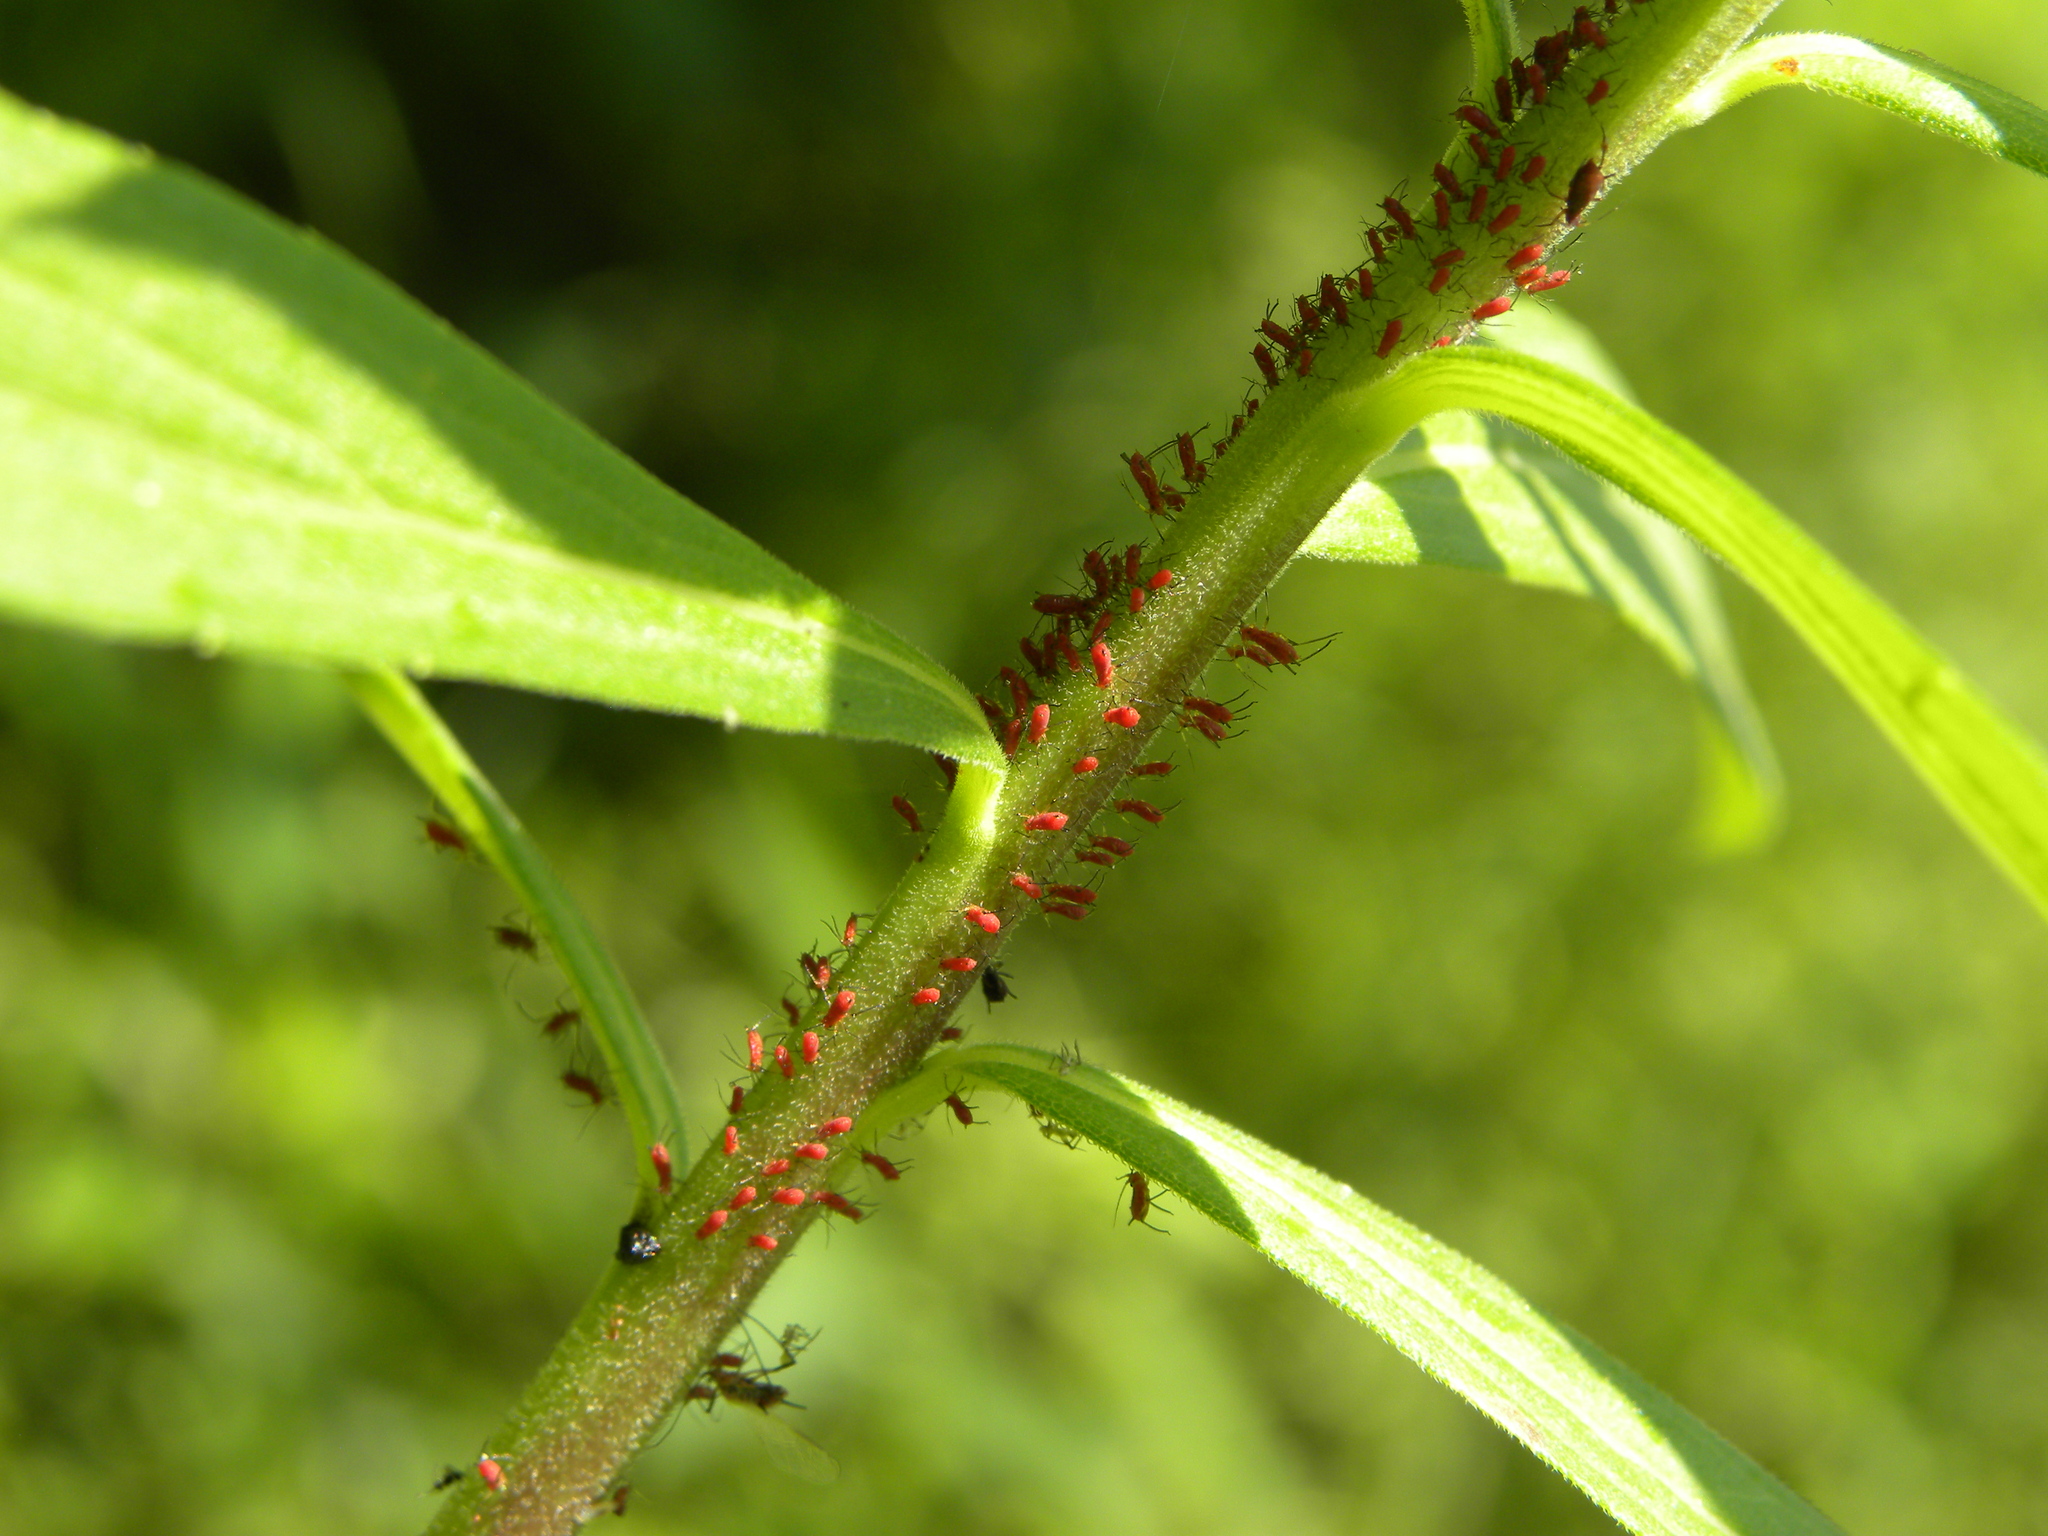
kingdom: Animalia
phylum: Arthropoda
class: Insecta
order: Hemiptera
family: Aphididae
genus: Uroleucon
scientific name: Uroleucon
